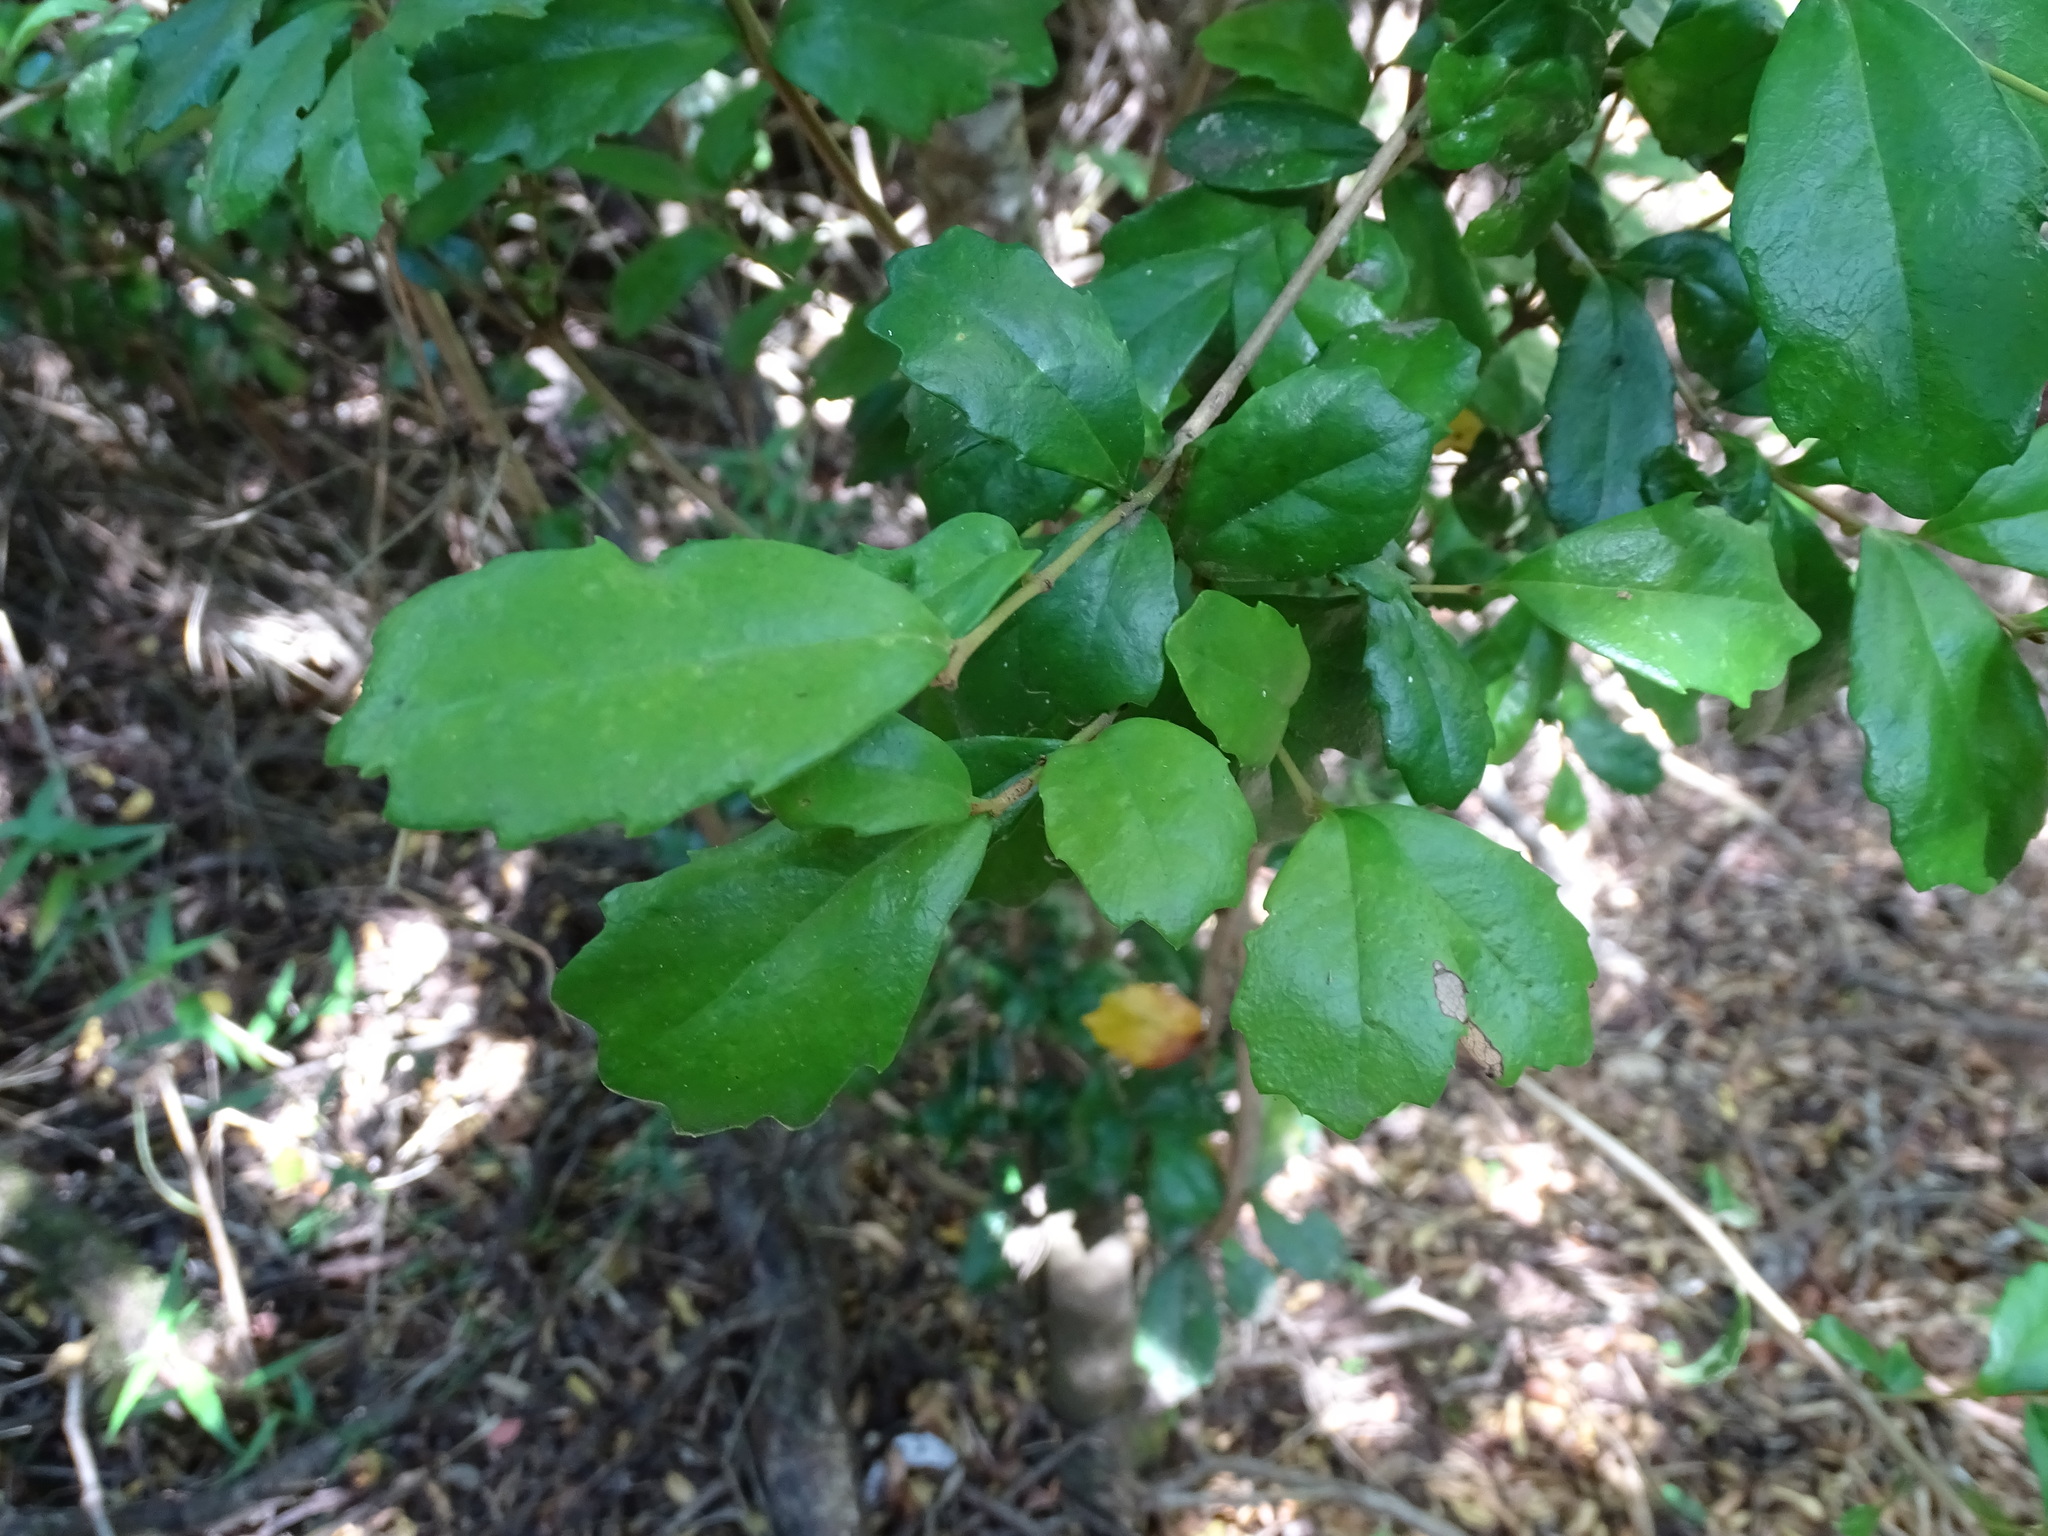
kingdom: Plantae
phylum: Tracheophyta
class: Magnoliopsida
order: Proteales
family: Proteaceae
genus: Lomatia
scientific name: Lomatia dentata
